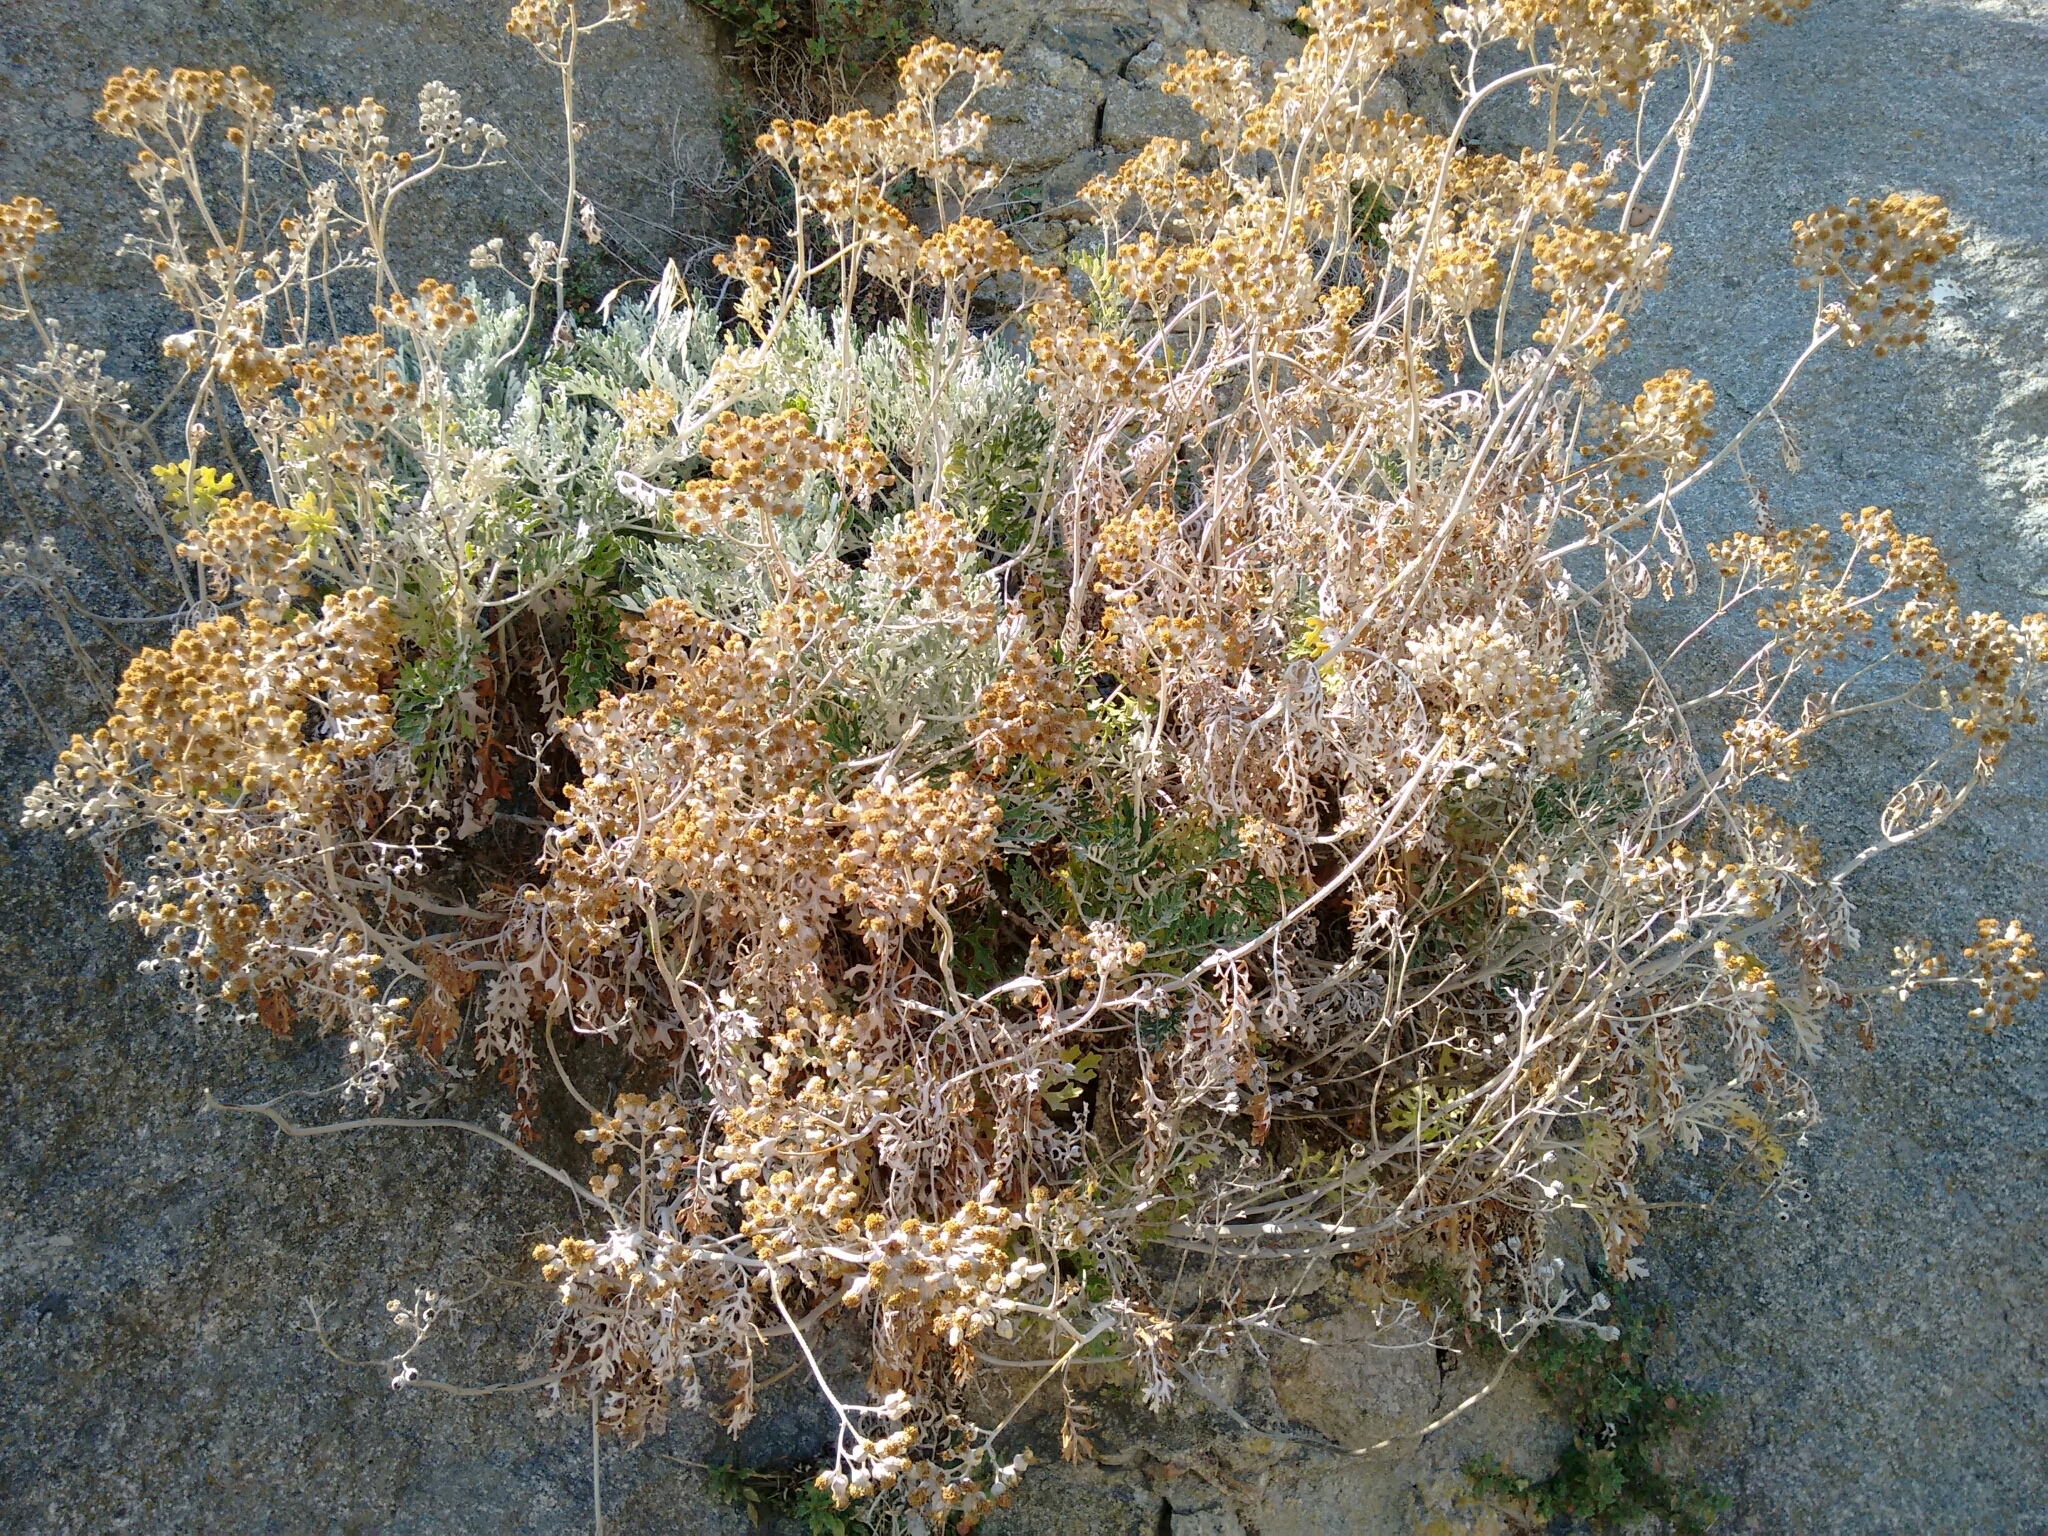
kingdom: Plantae
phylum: Tracheophyta
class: Magnoliopsida
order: Asterales
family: Asteraceae
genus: Jacobaea
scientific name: Jacobaea maritima
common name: Silver ragwort
